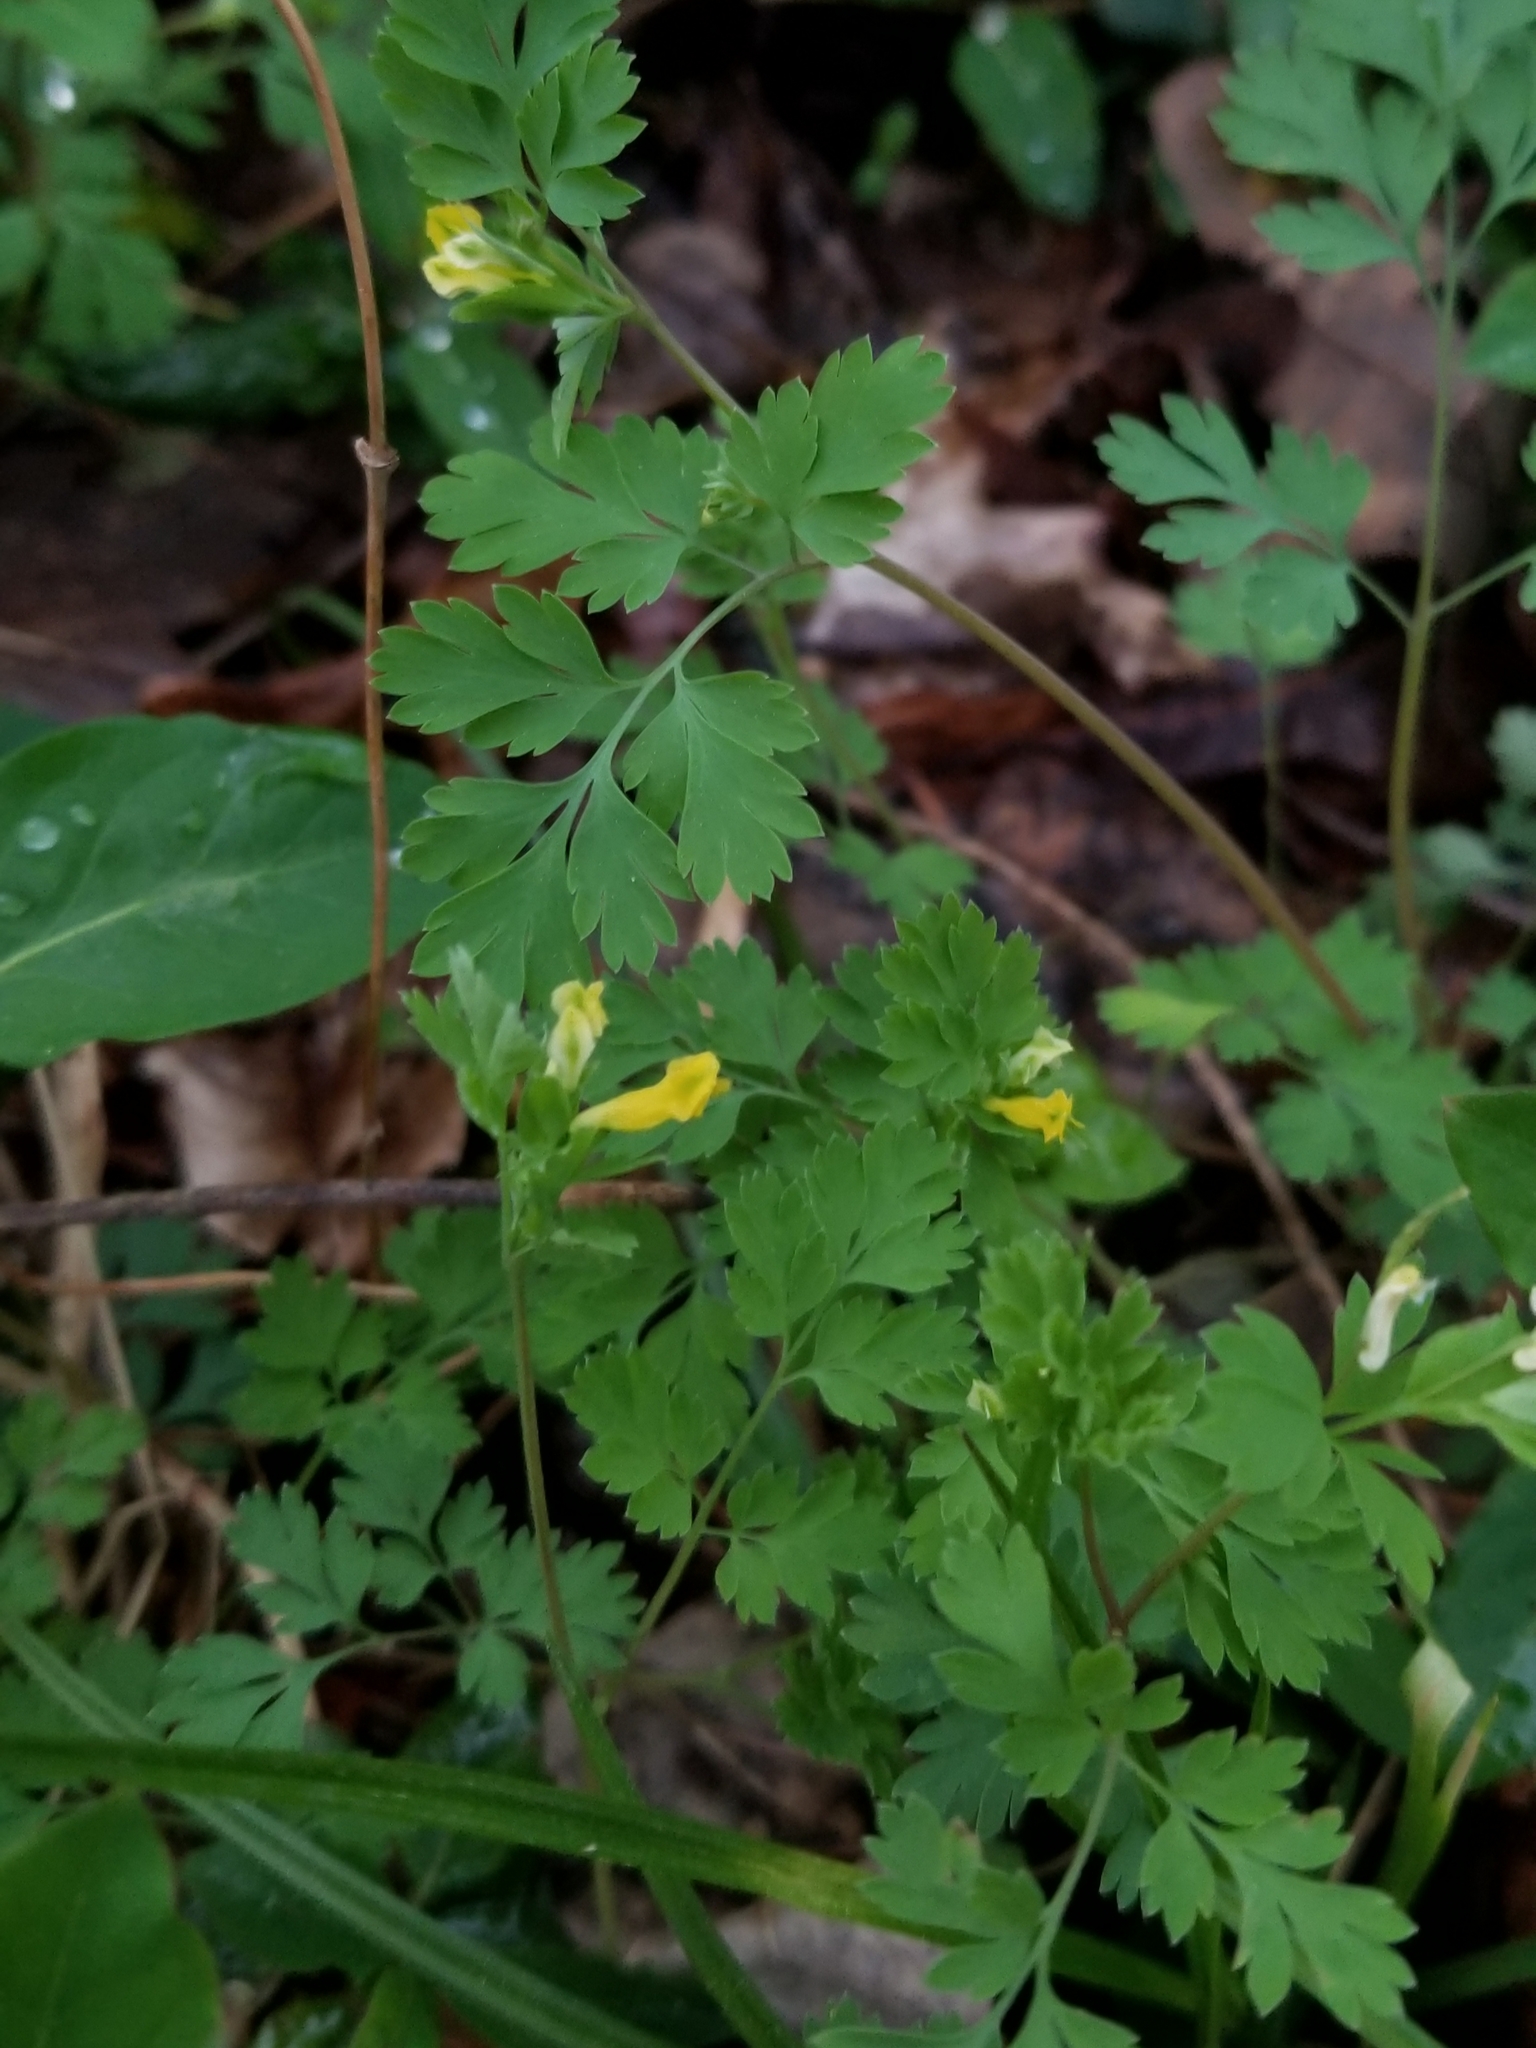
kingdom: Plantae
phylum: Tracheophyta
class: Magnoliopsida
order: Ranunculales
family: Papaveraceae
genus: Corydalis
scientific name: Corydalis flavula
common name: Yellow corydalis
